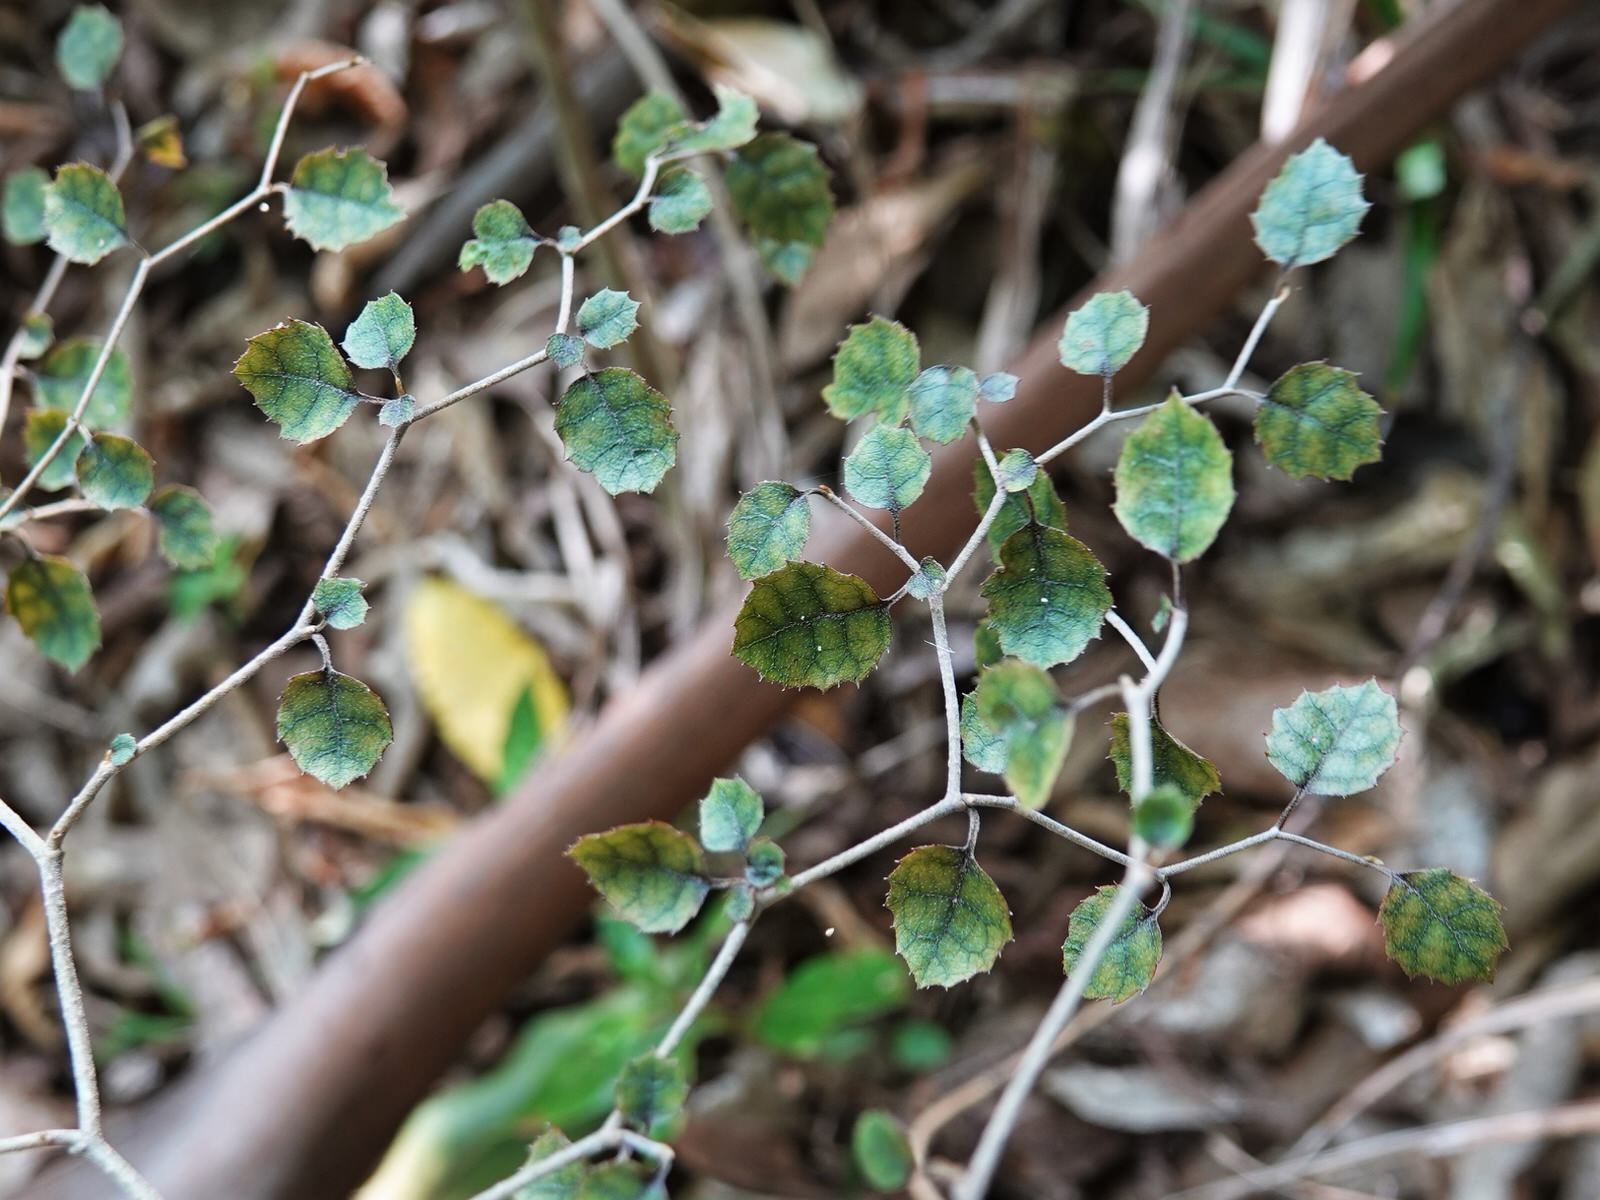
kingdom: Plantae
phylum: Tracheophyta
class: Magnoliopsida
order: Asterales
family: Rousseaceae
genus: Carpodetus
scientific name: Carpodetus serratus
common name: White mapau
